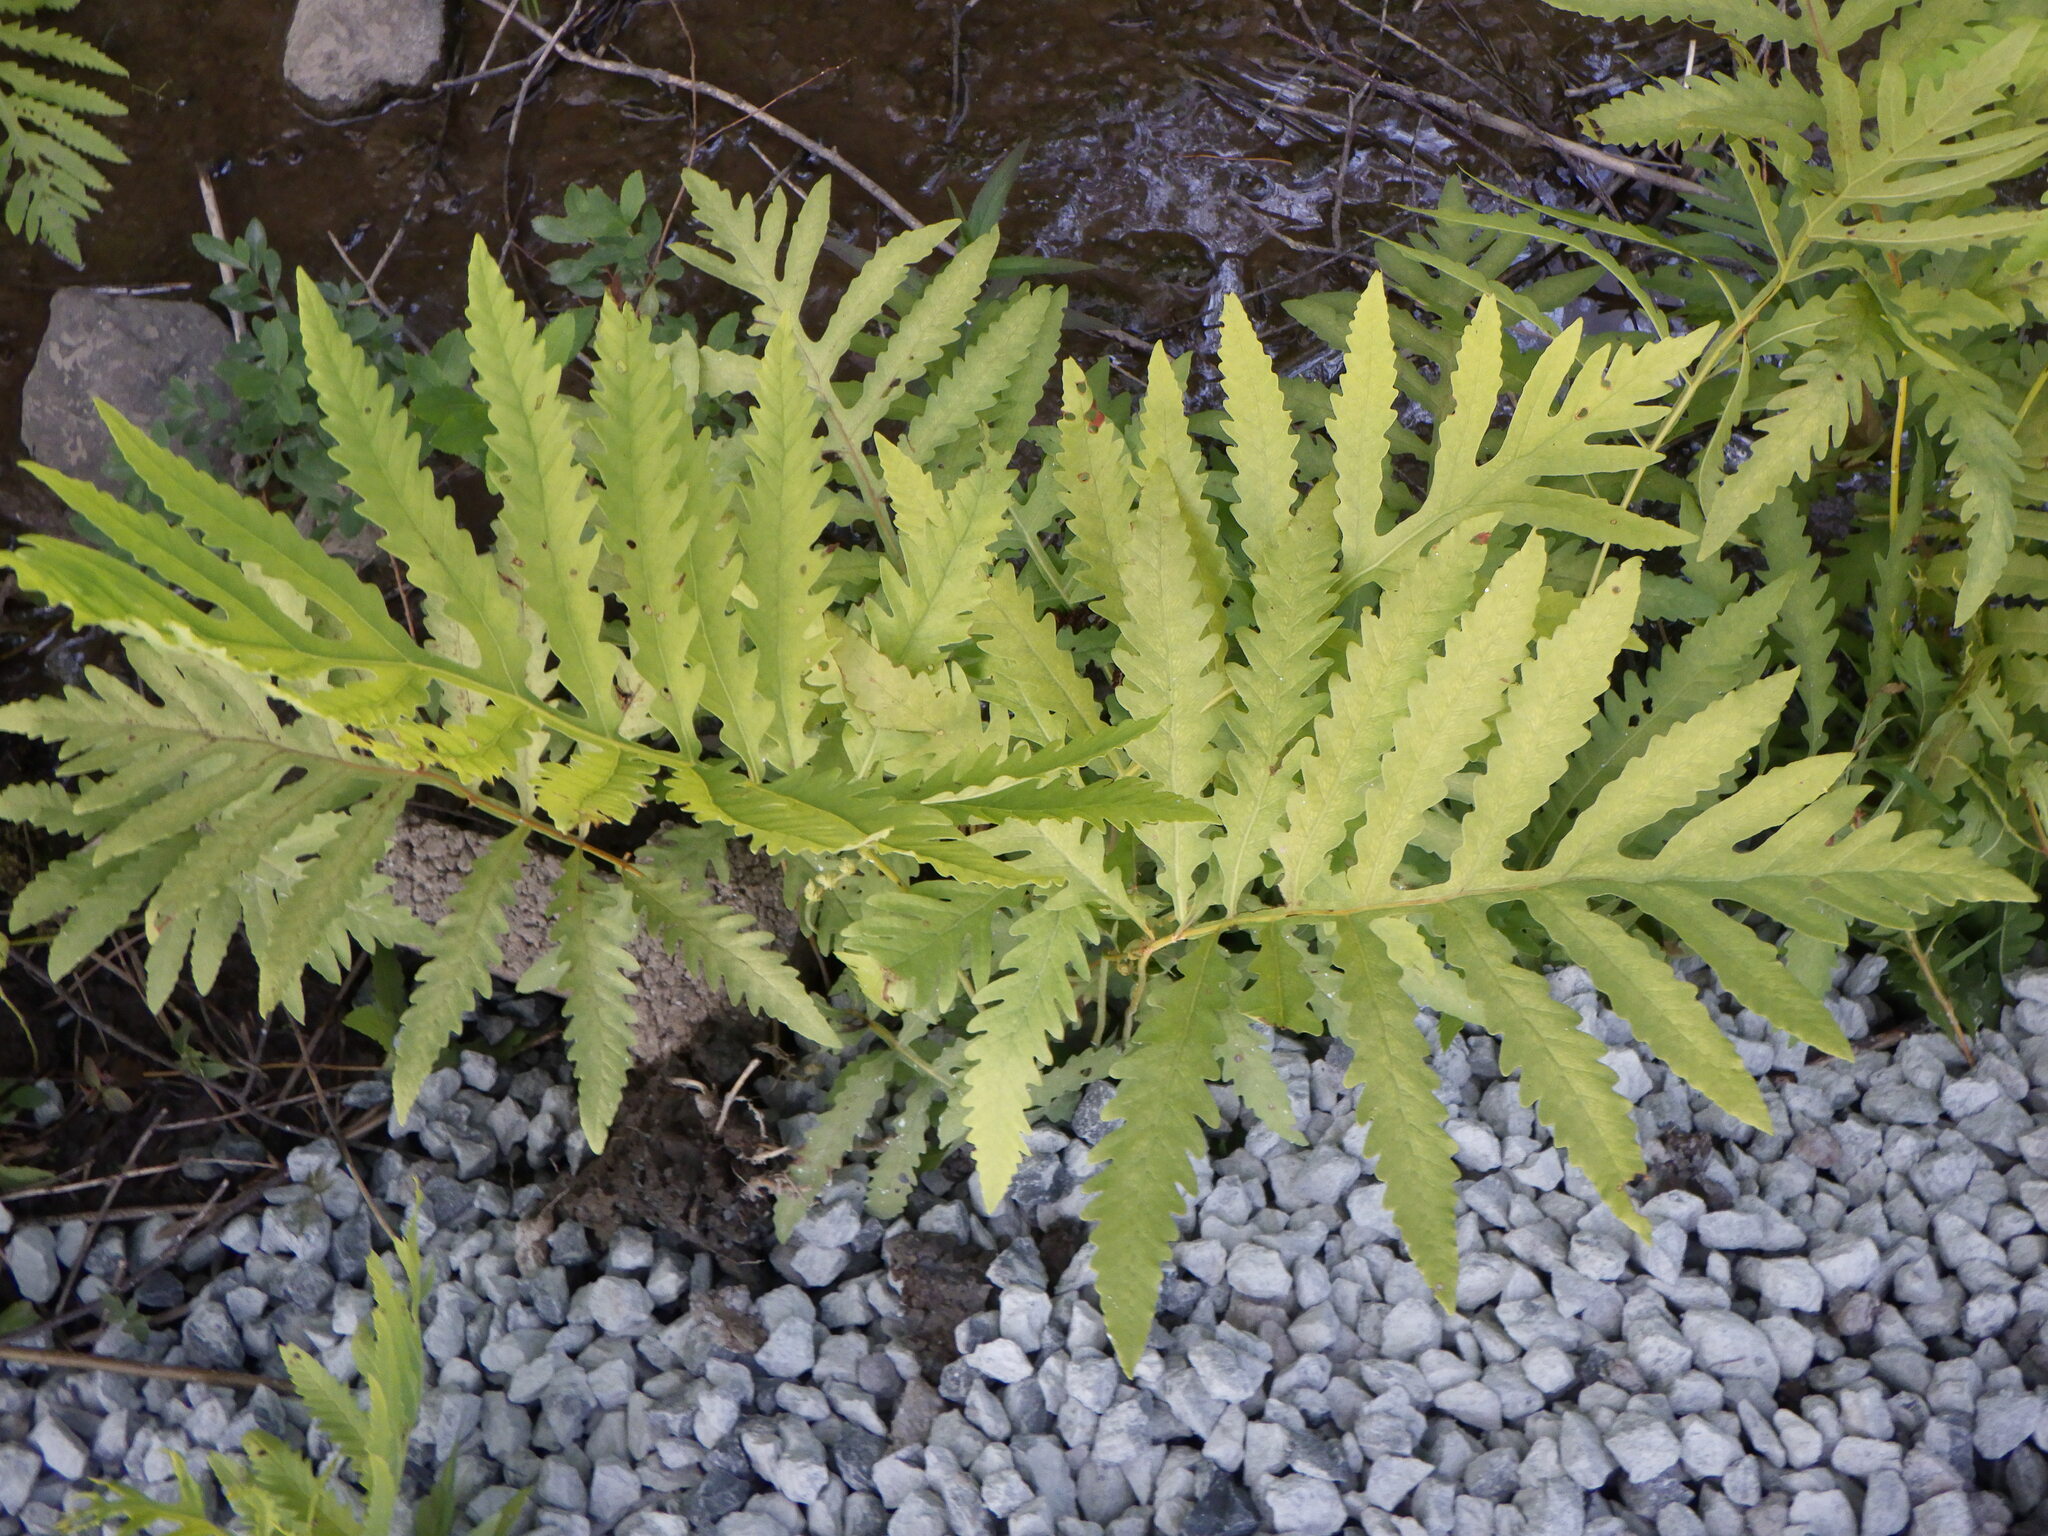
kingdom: Plantae
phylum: Tracheophyta
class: Polypodiopsida
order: Polypodiales
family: Onocleaceae
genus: Onoclea
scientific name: Onoclea sensibilis
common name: Sensitive fern
